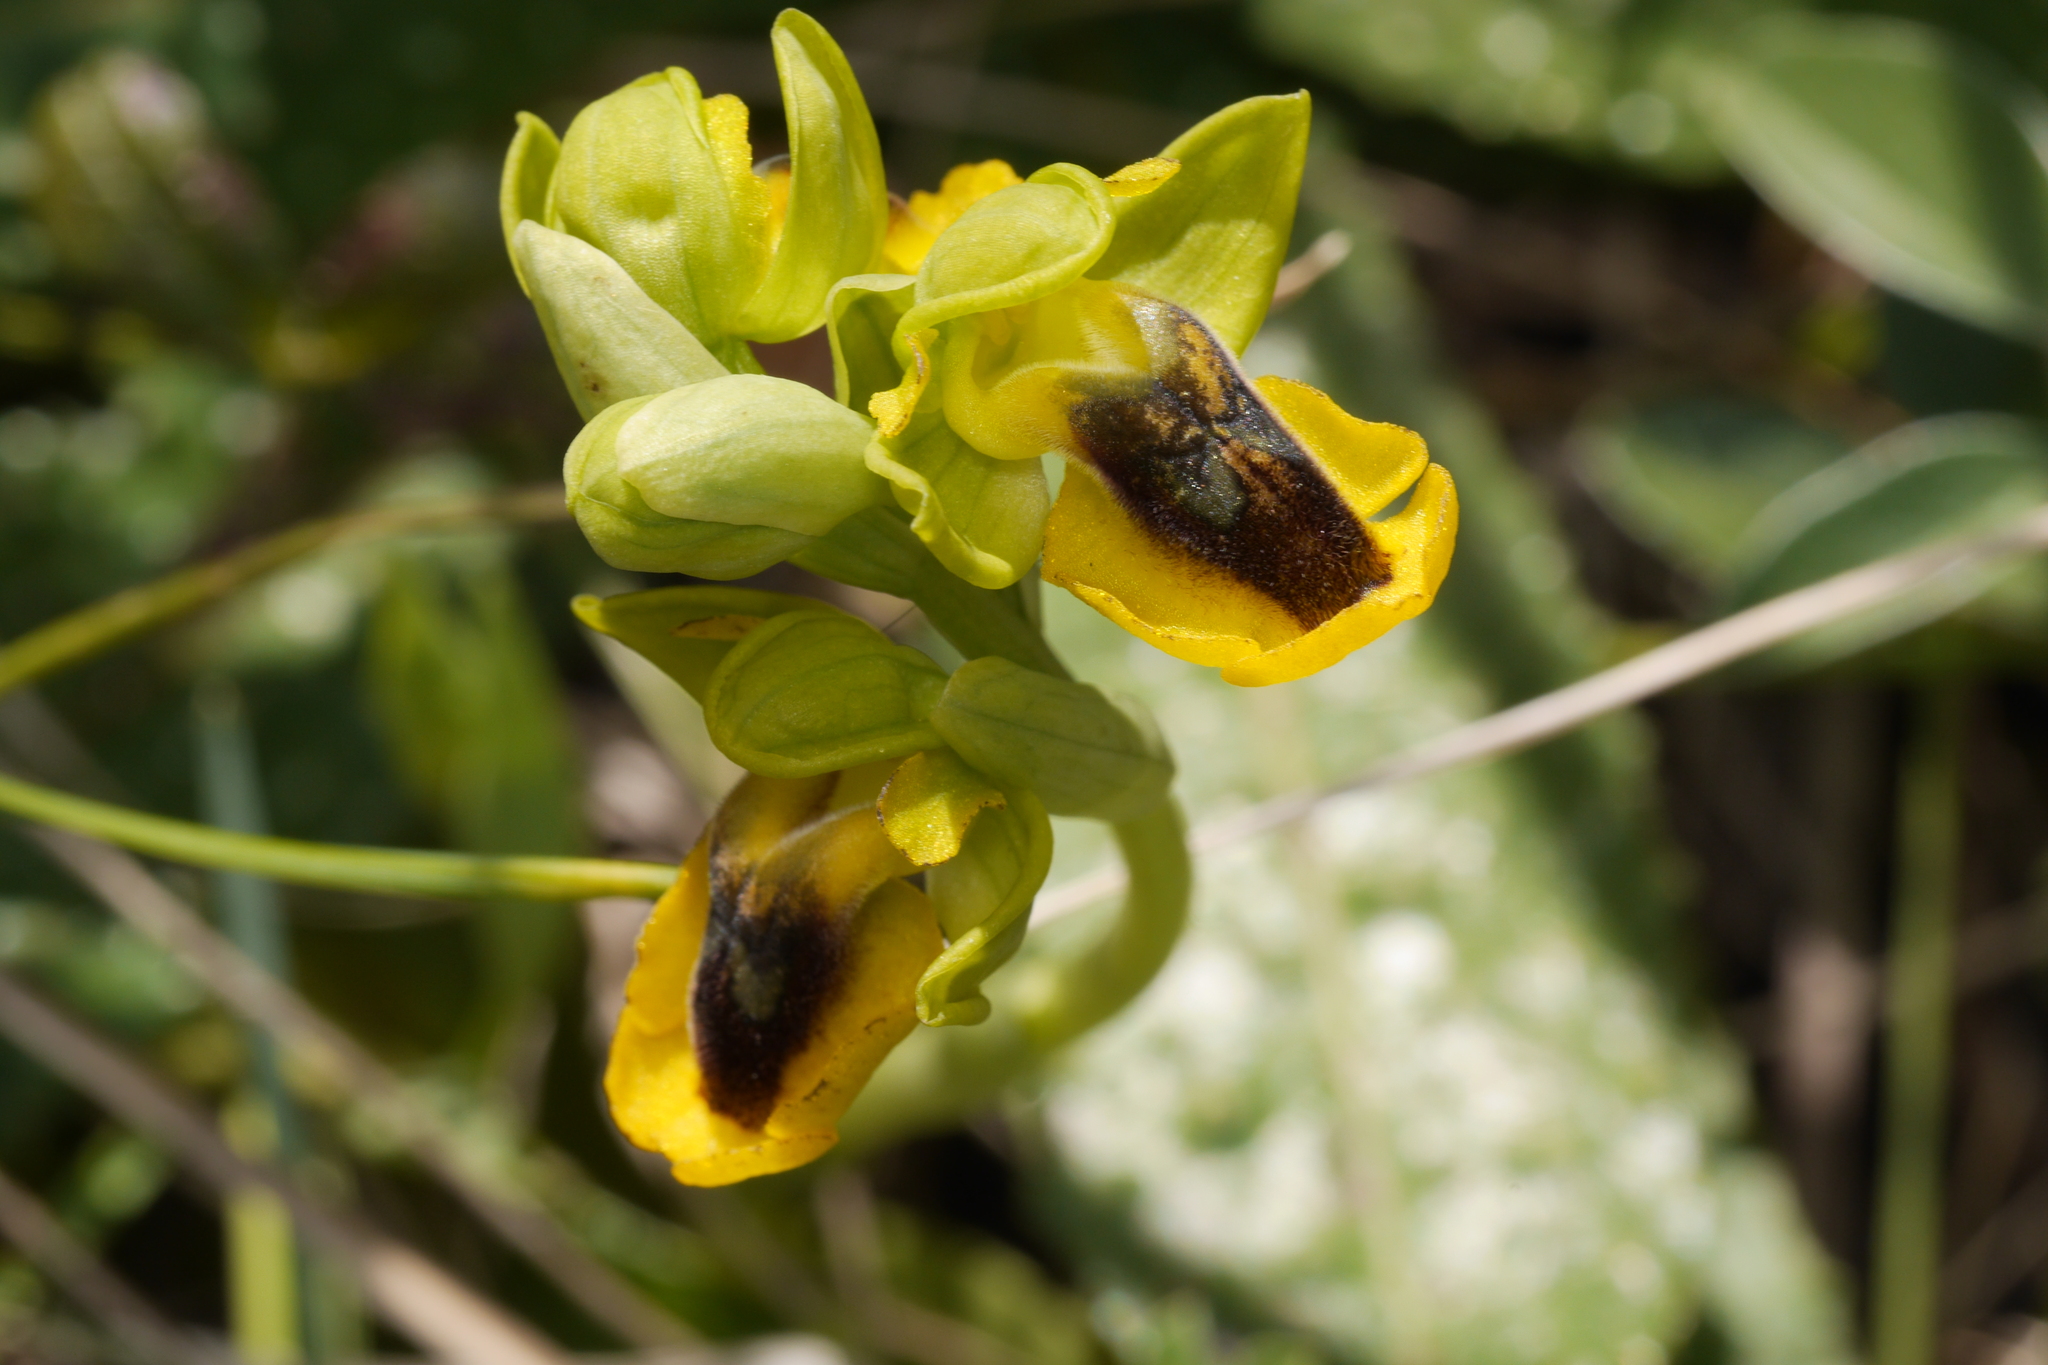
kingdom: Plantae
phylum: Tracheophyta
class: Liliopsida
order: Asparagales
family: Orchidaceae
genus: Ophrys
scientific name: Ophrys lutea
